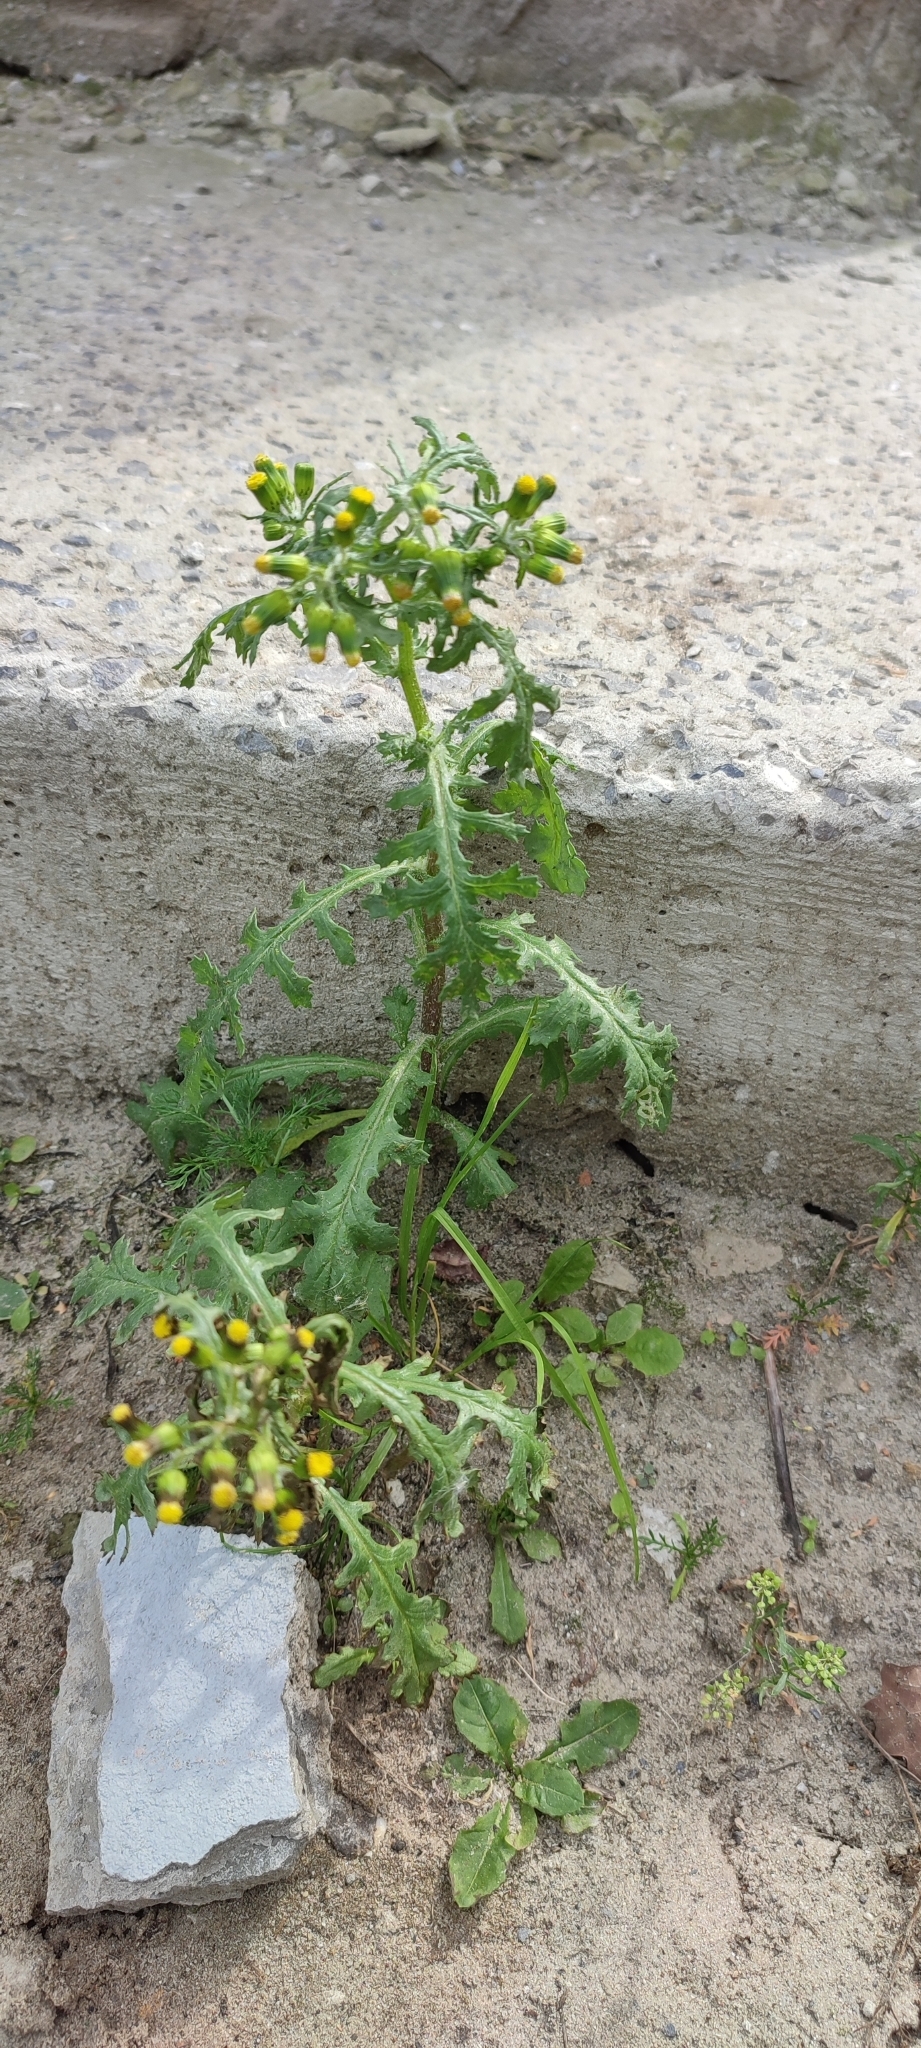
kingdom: Plantae
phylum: Tracheophyta
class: Magnoliopsida
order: Asterales
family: Asteraceae
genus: Senecio
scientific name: Senecio vulgaris
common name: Old-man-in-the-spring
